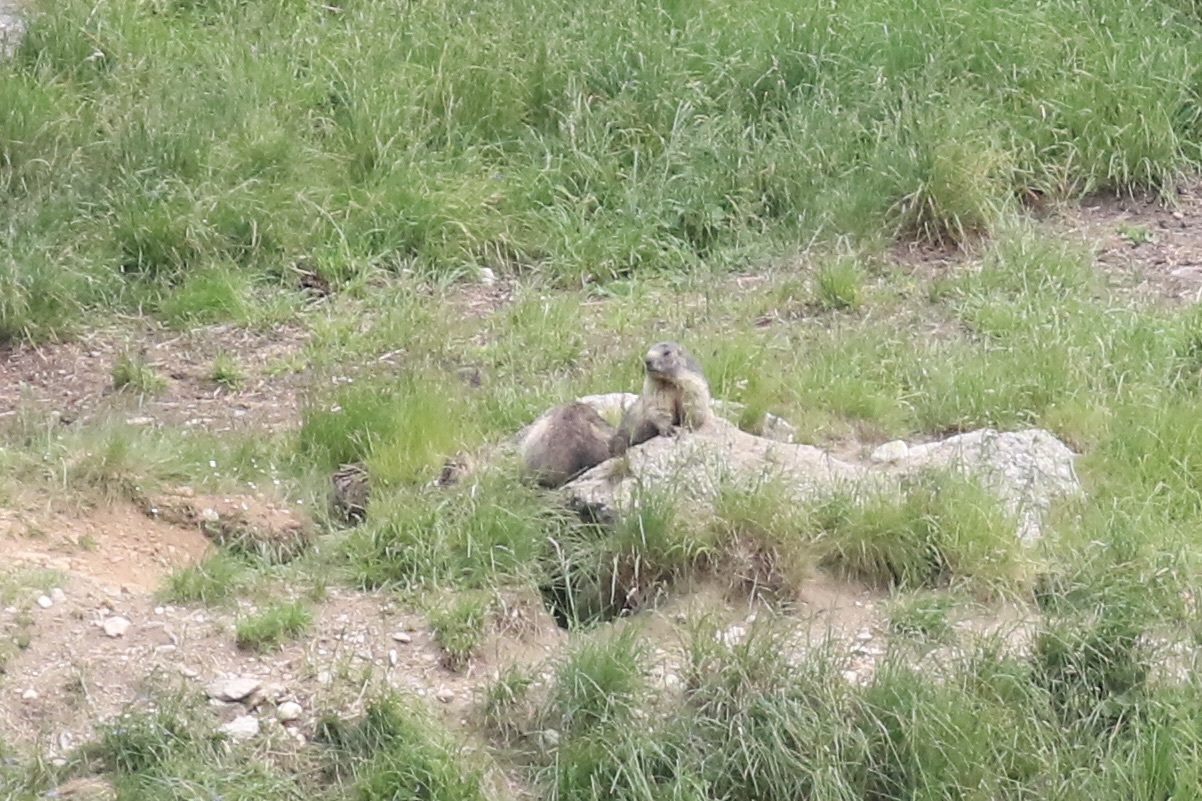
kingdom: Animalia
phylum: Chordata
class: Mammalia
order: Rodentia
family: Sciuridae
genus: Marmota
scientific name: Marmota marmota
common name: Alpine marmot
